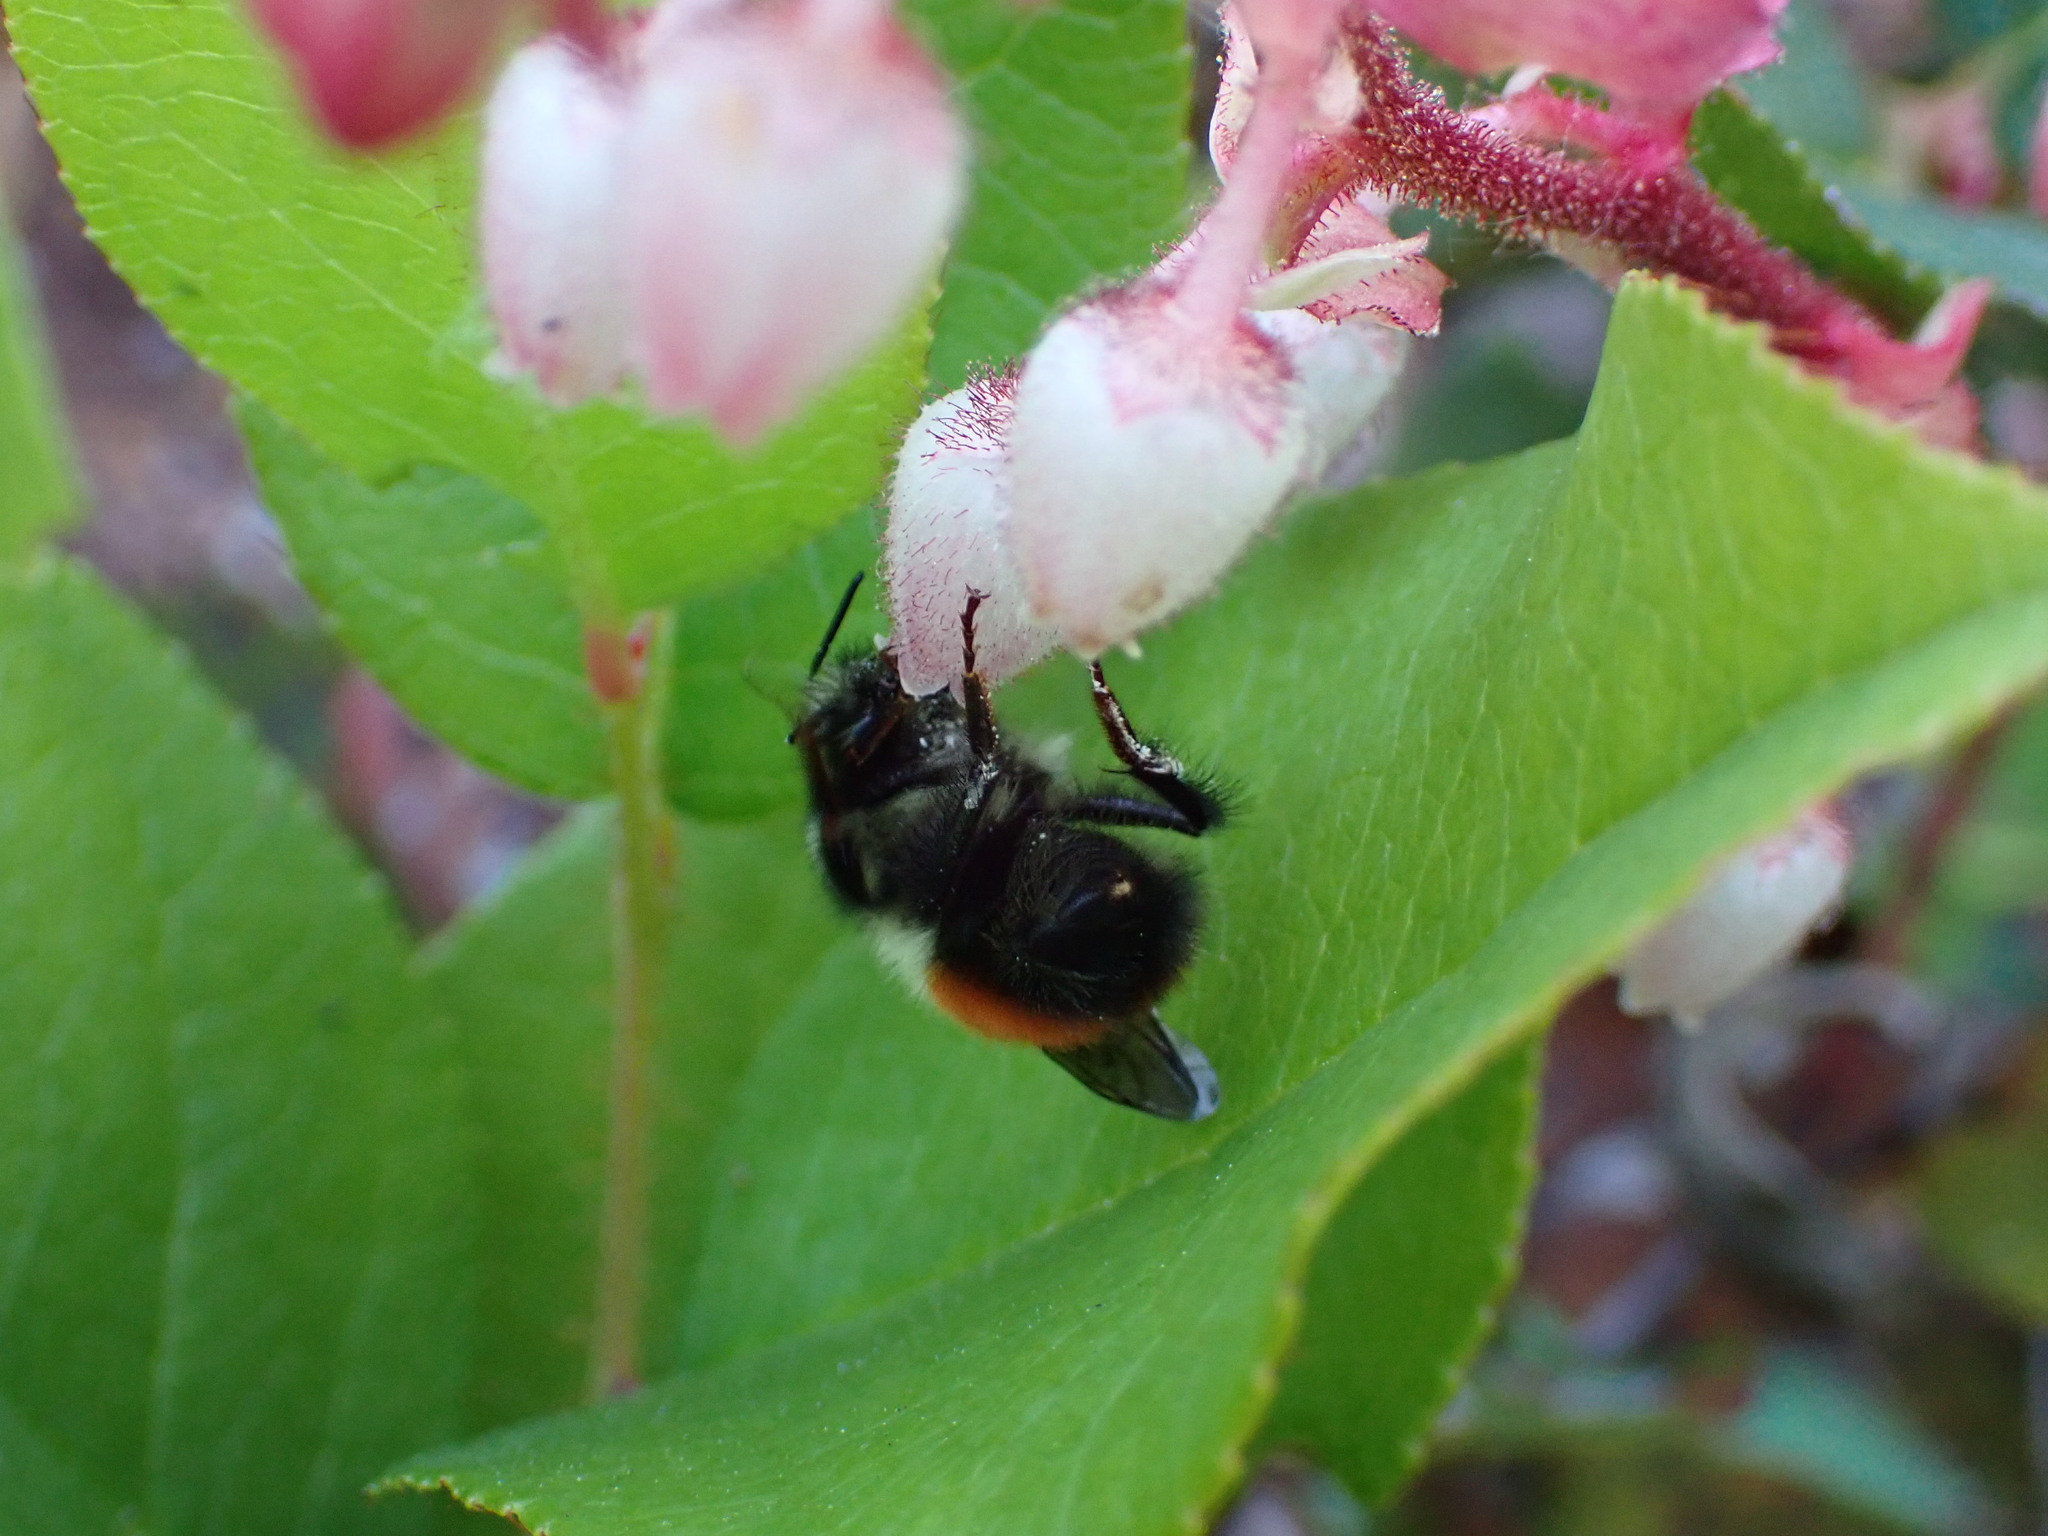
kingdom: Animalia
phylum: Arthropoda
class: Insecta
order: Hymenoptera
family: Apidae
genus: Bombus
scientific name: Bombus melanopygus
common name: Black tail bumble bee
